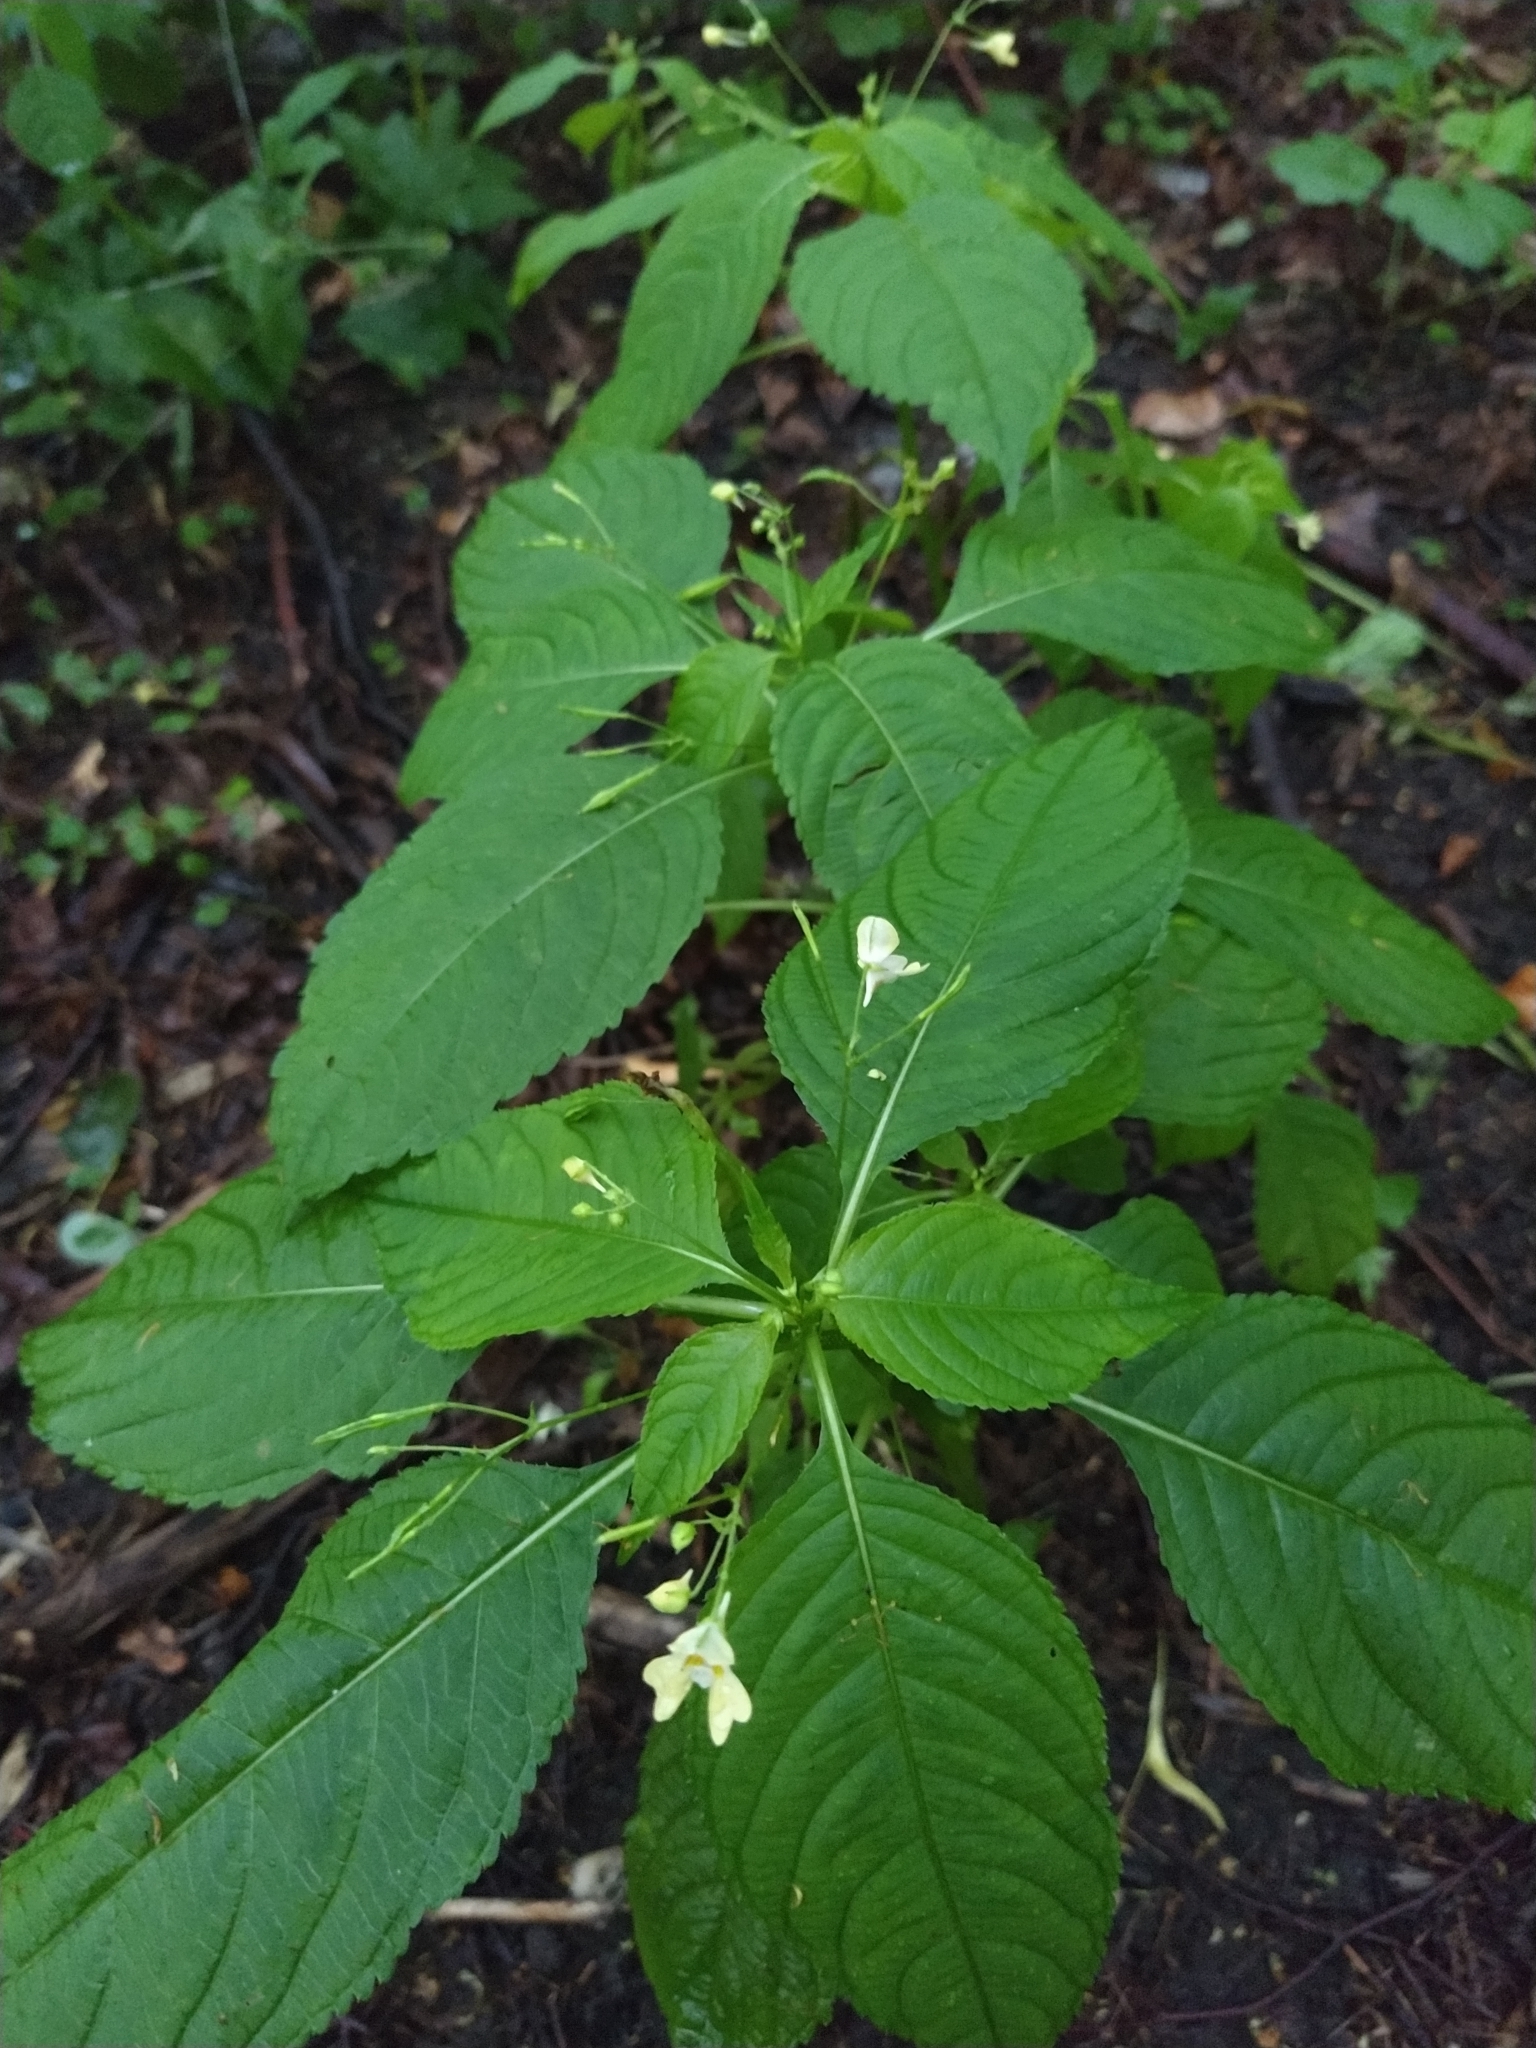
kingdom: Plantae
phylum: Tracheophyta
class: Magnoliopsida
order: Ericales
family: Balsaminaceae
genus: Impatiens
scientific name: Impatiens parviflora
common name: Small balsam
